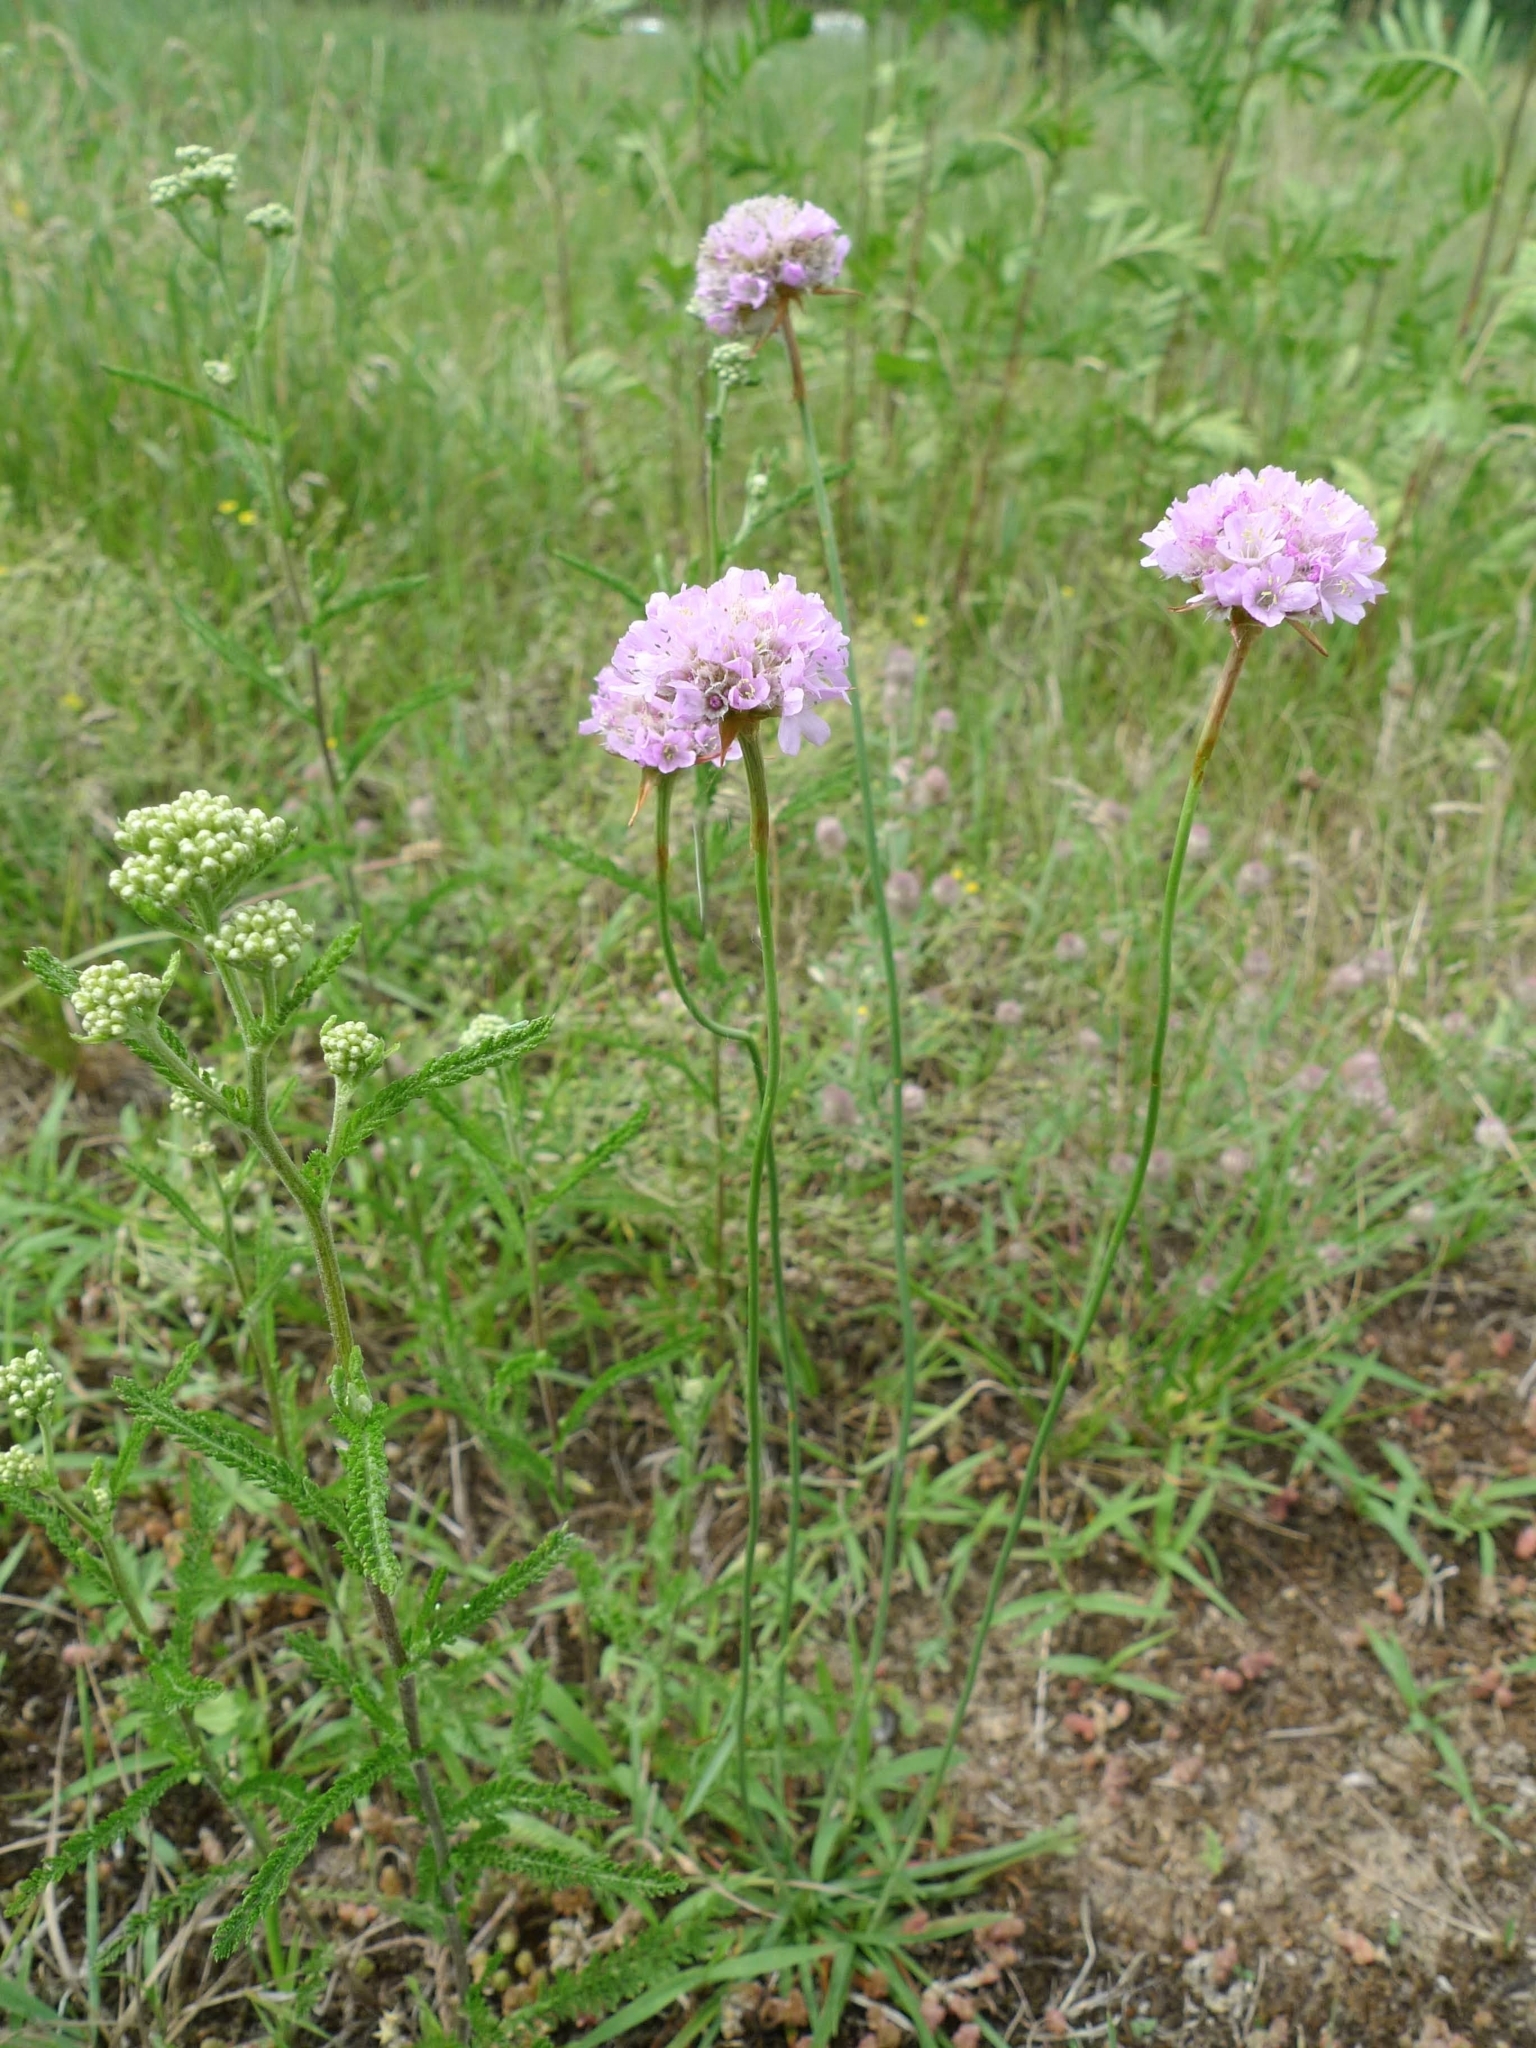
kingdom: Plantae
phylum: Tracheophyta
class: Magnoliopsida
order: Caryophyllales
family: Plumbaginaceae
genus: Armeria
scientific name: Armeria maritima
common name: Thrift
